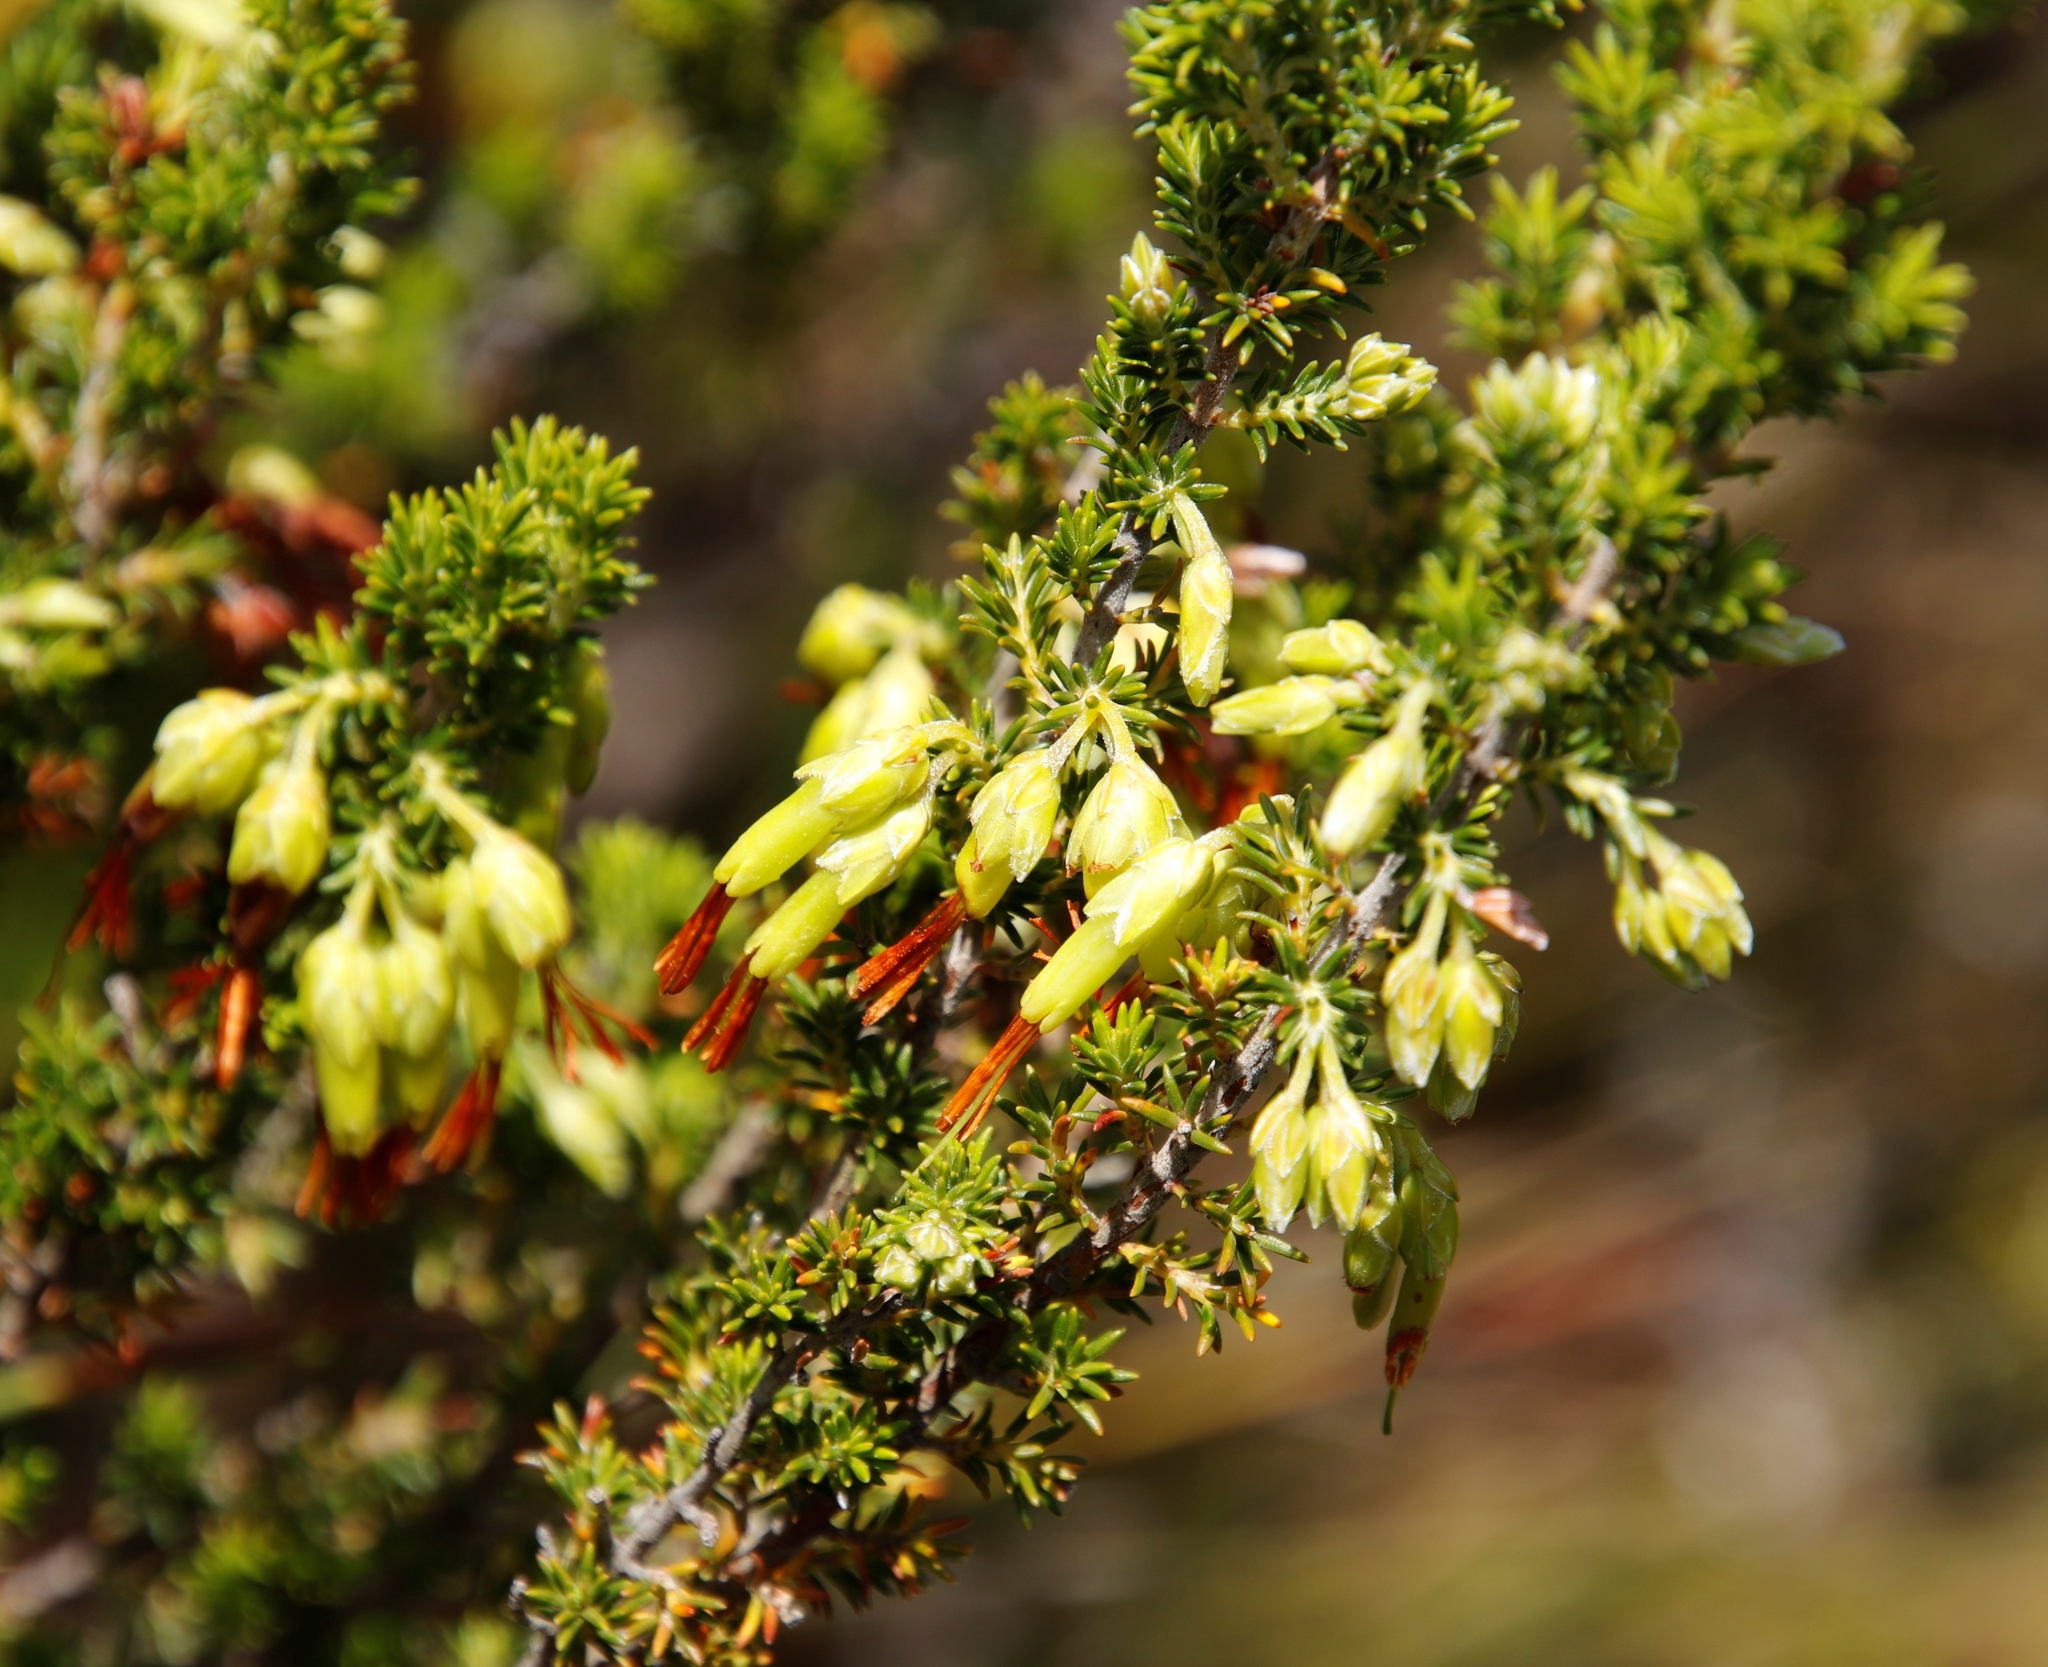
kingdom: Plantae
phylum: Tracheophyta
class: Magnoliopsida
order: Ericales
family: Ericaceae
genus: Erica
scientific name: Erica coccinea
